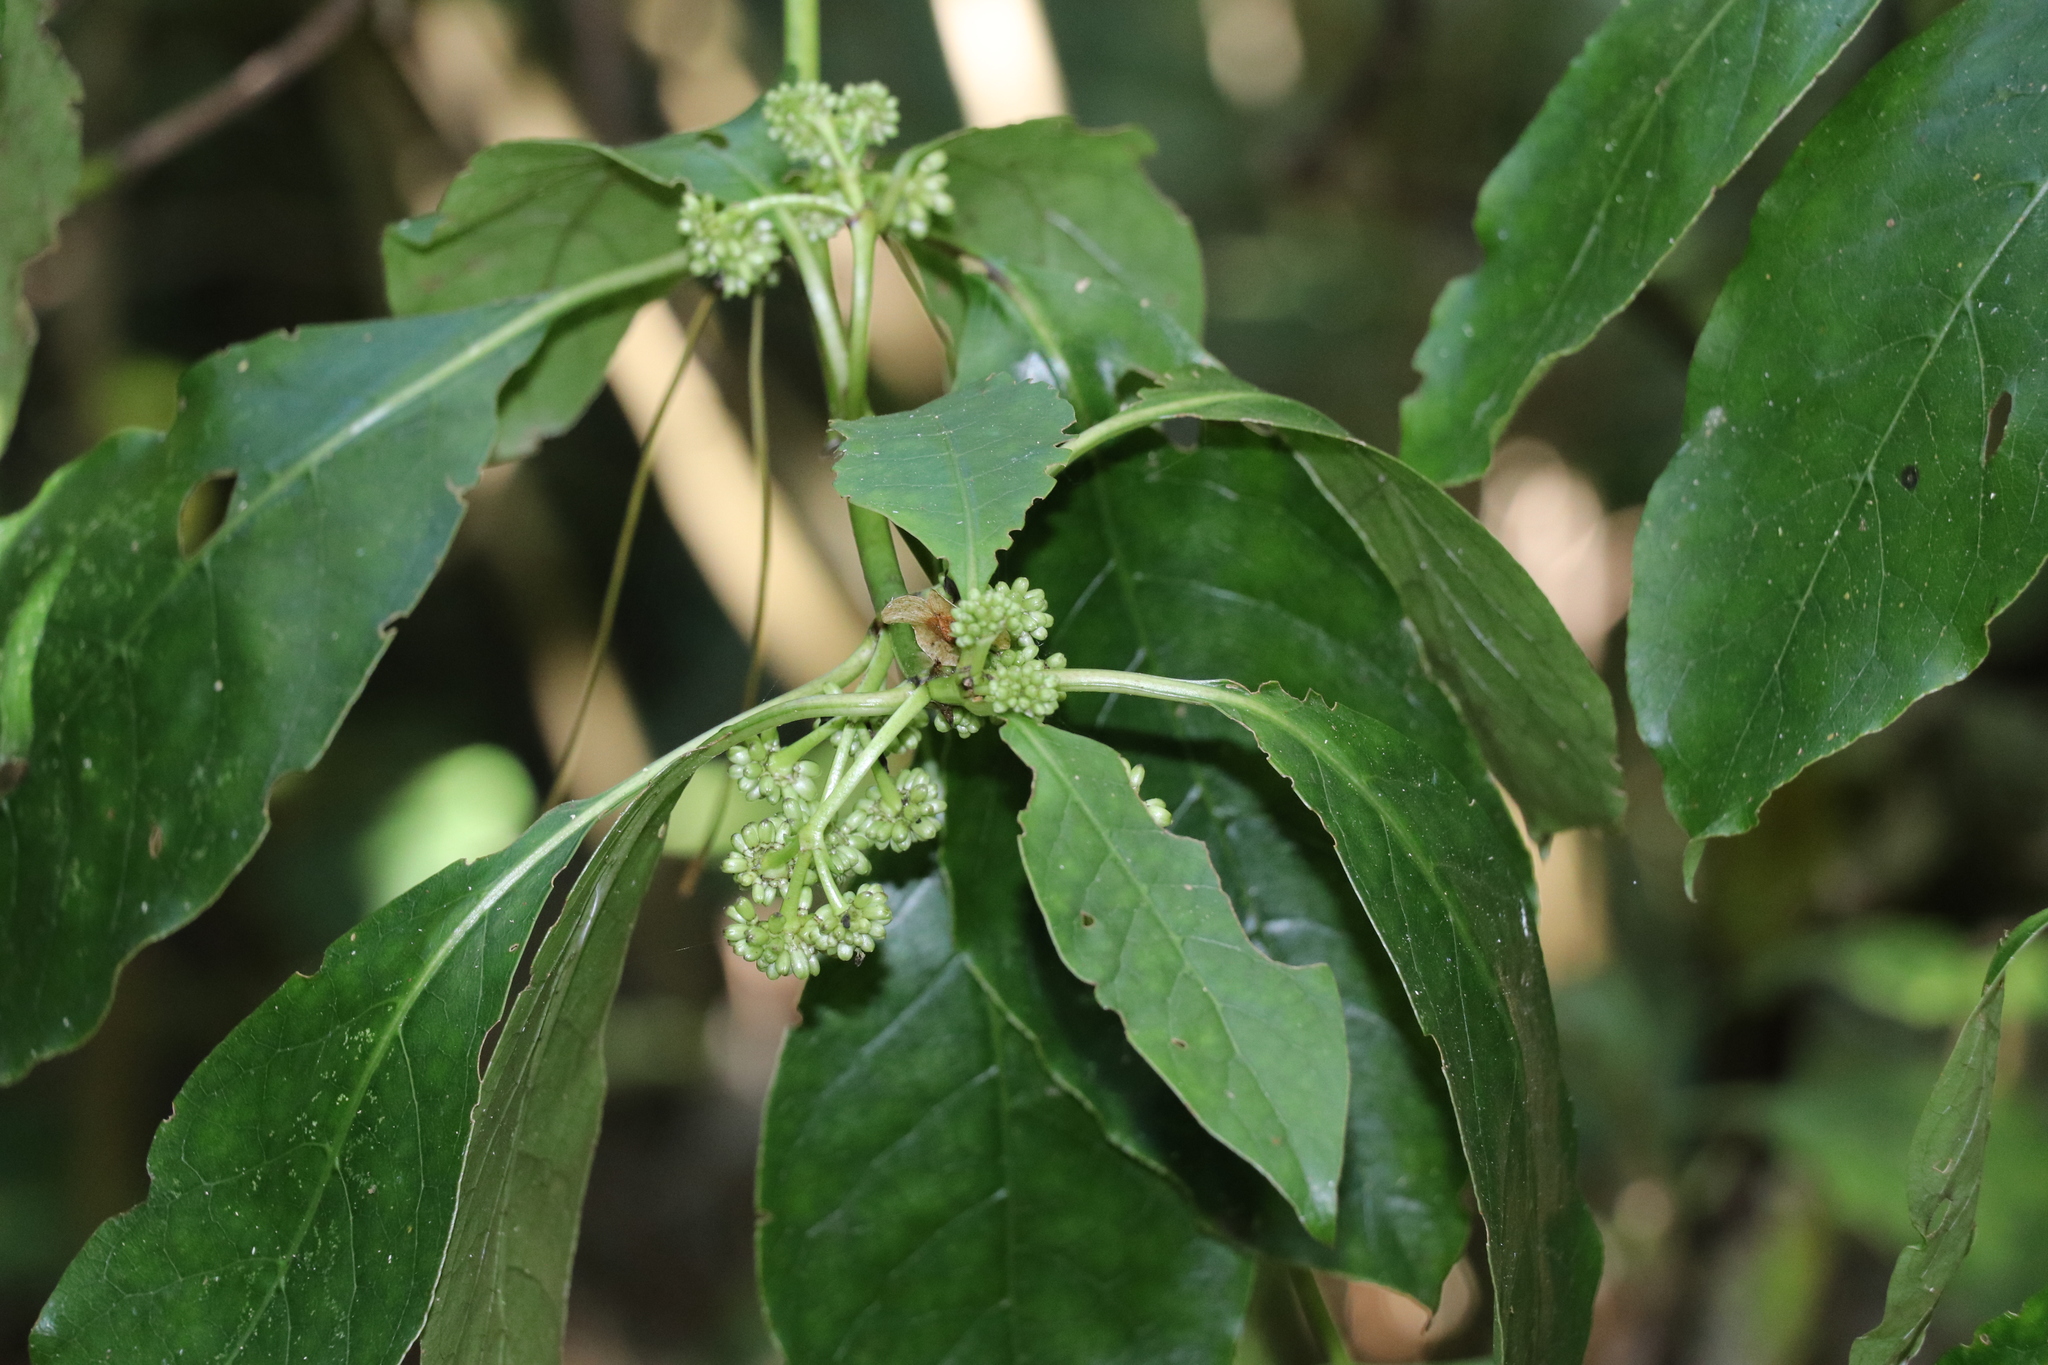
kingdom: Plantae
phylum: Tracheophyta
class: Magnoliopsida
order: Gentianales
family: Rubiaceae
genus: Coprosma
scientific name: Coprosma autumnalis
